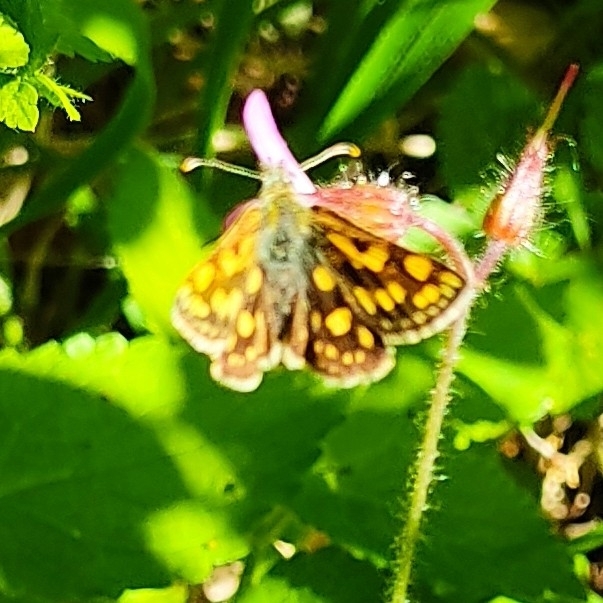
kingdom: Animalia
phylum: Arthropoda
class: Insecta
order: Lepidoptera
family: Hesperiidae
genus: Carterocephalus
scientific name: Carterocephalus palaemon
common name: Chequered skipper
